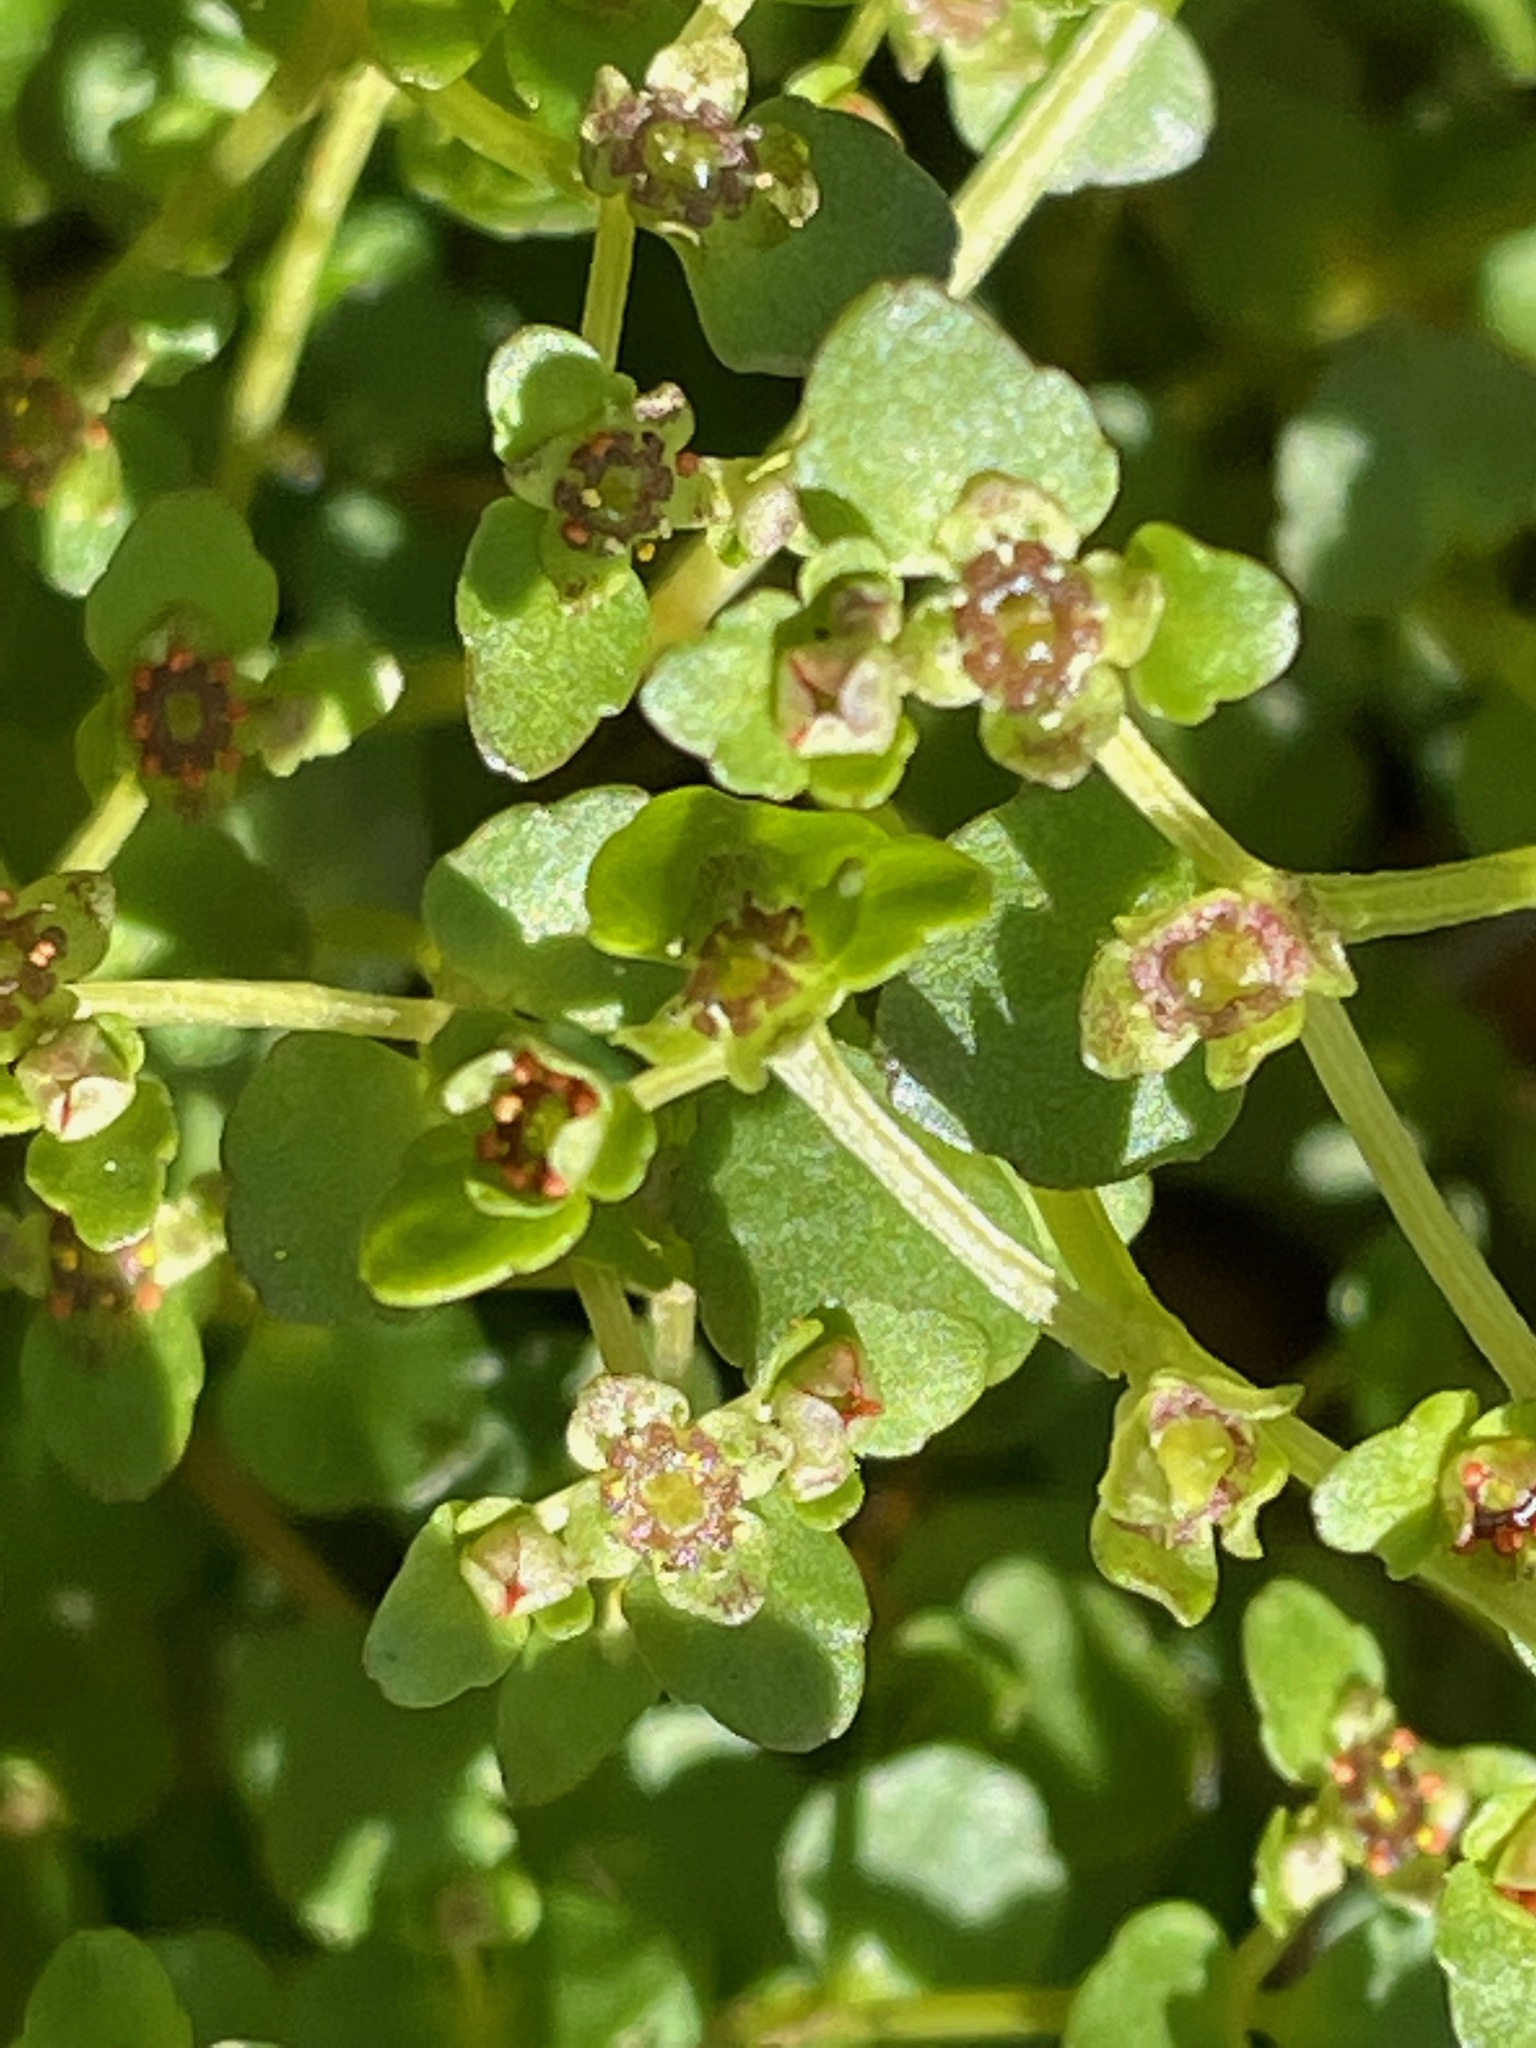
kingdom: Plantae
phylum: Tracheophyta
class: Magnoliopsida
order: Saxifragales
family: Saxifragaceae
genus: Chrysosplenium
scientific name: Chrysosplenium americanum
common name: American golden-saxifrage
